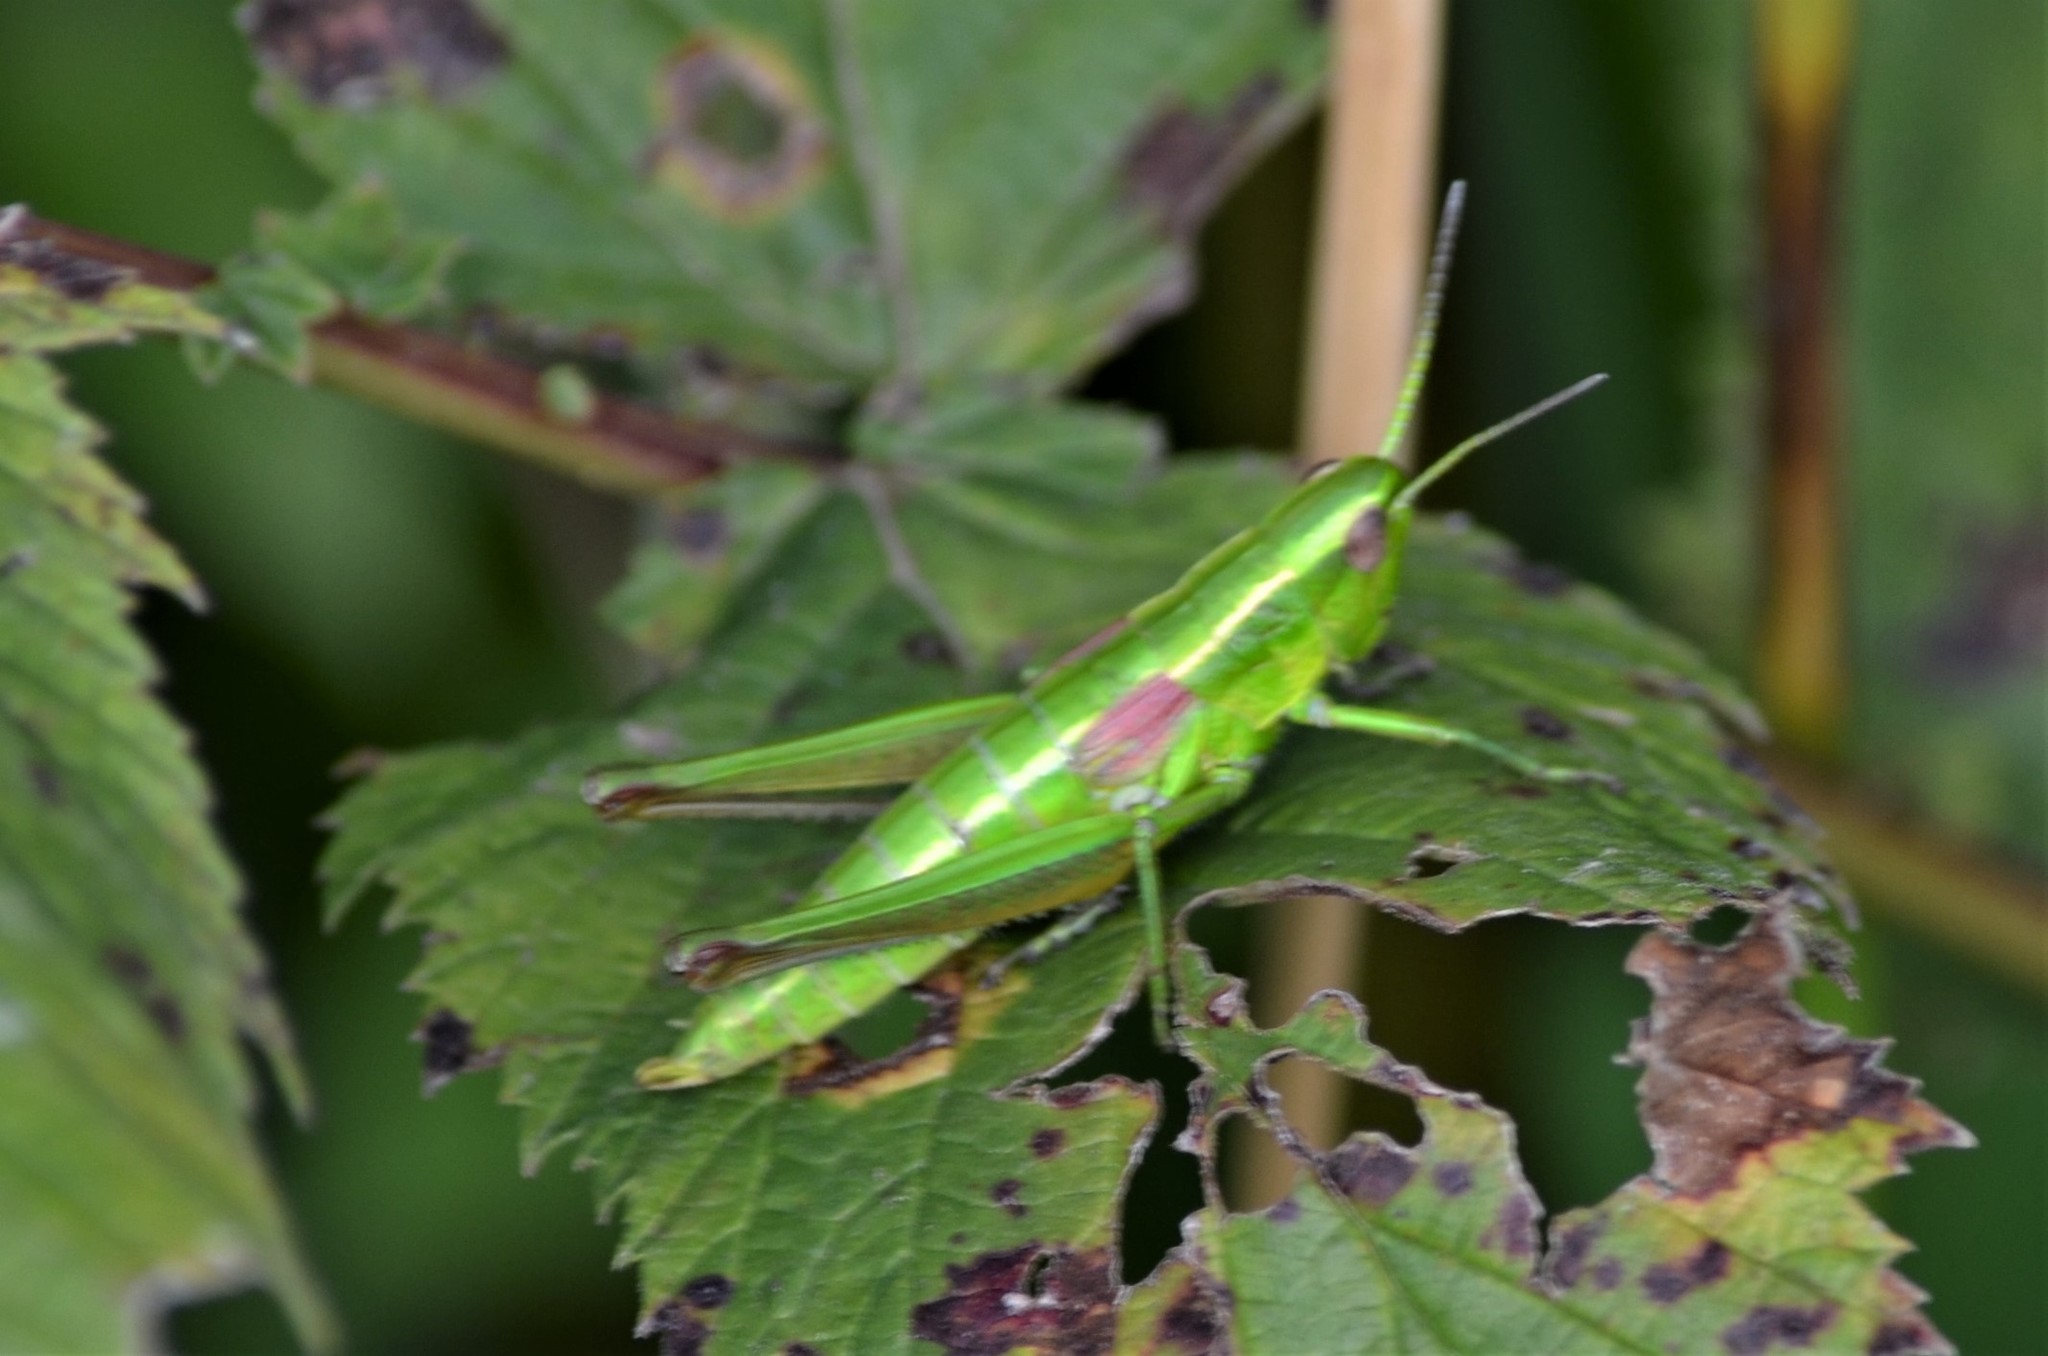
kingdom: Animalia
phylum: Arthropoda
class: Insecta
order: Orthoptera
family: Acrididae
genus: Euthystira
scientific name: Euthystira brachyptera
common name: Small gold grasshopper
